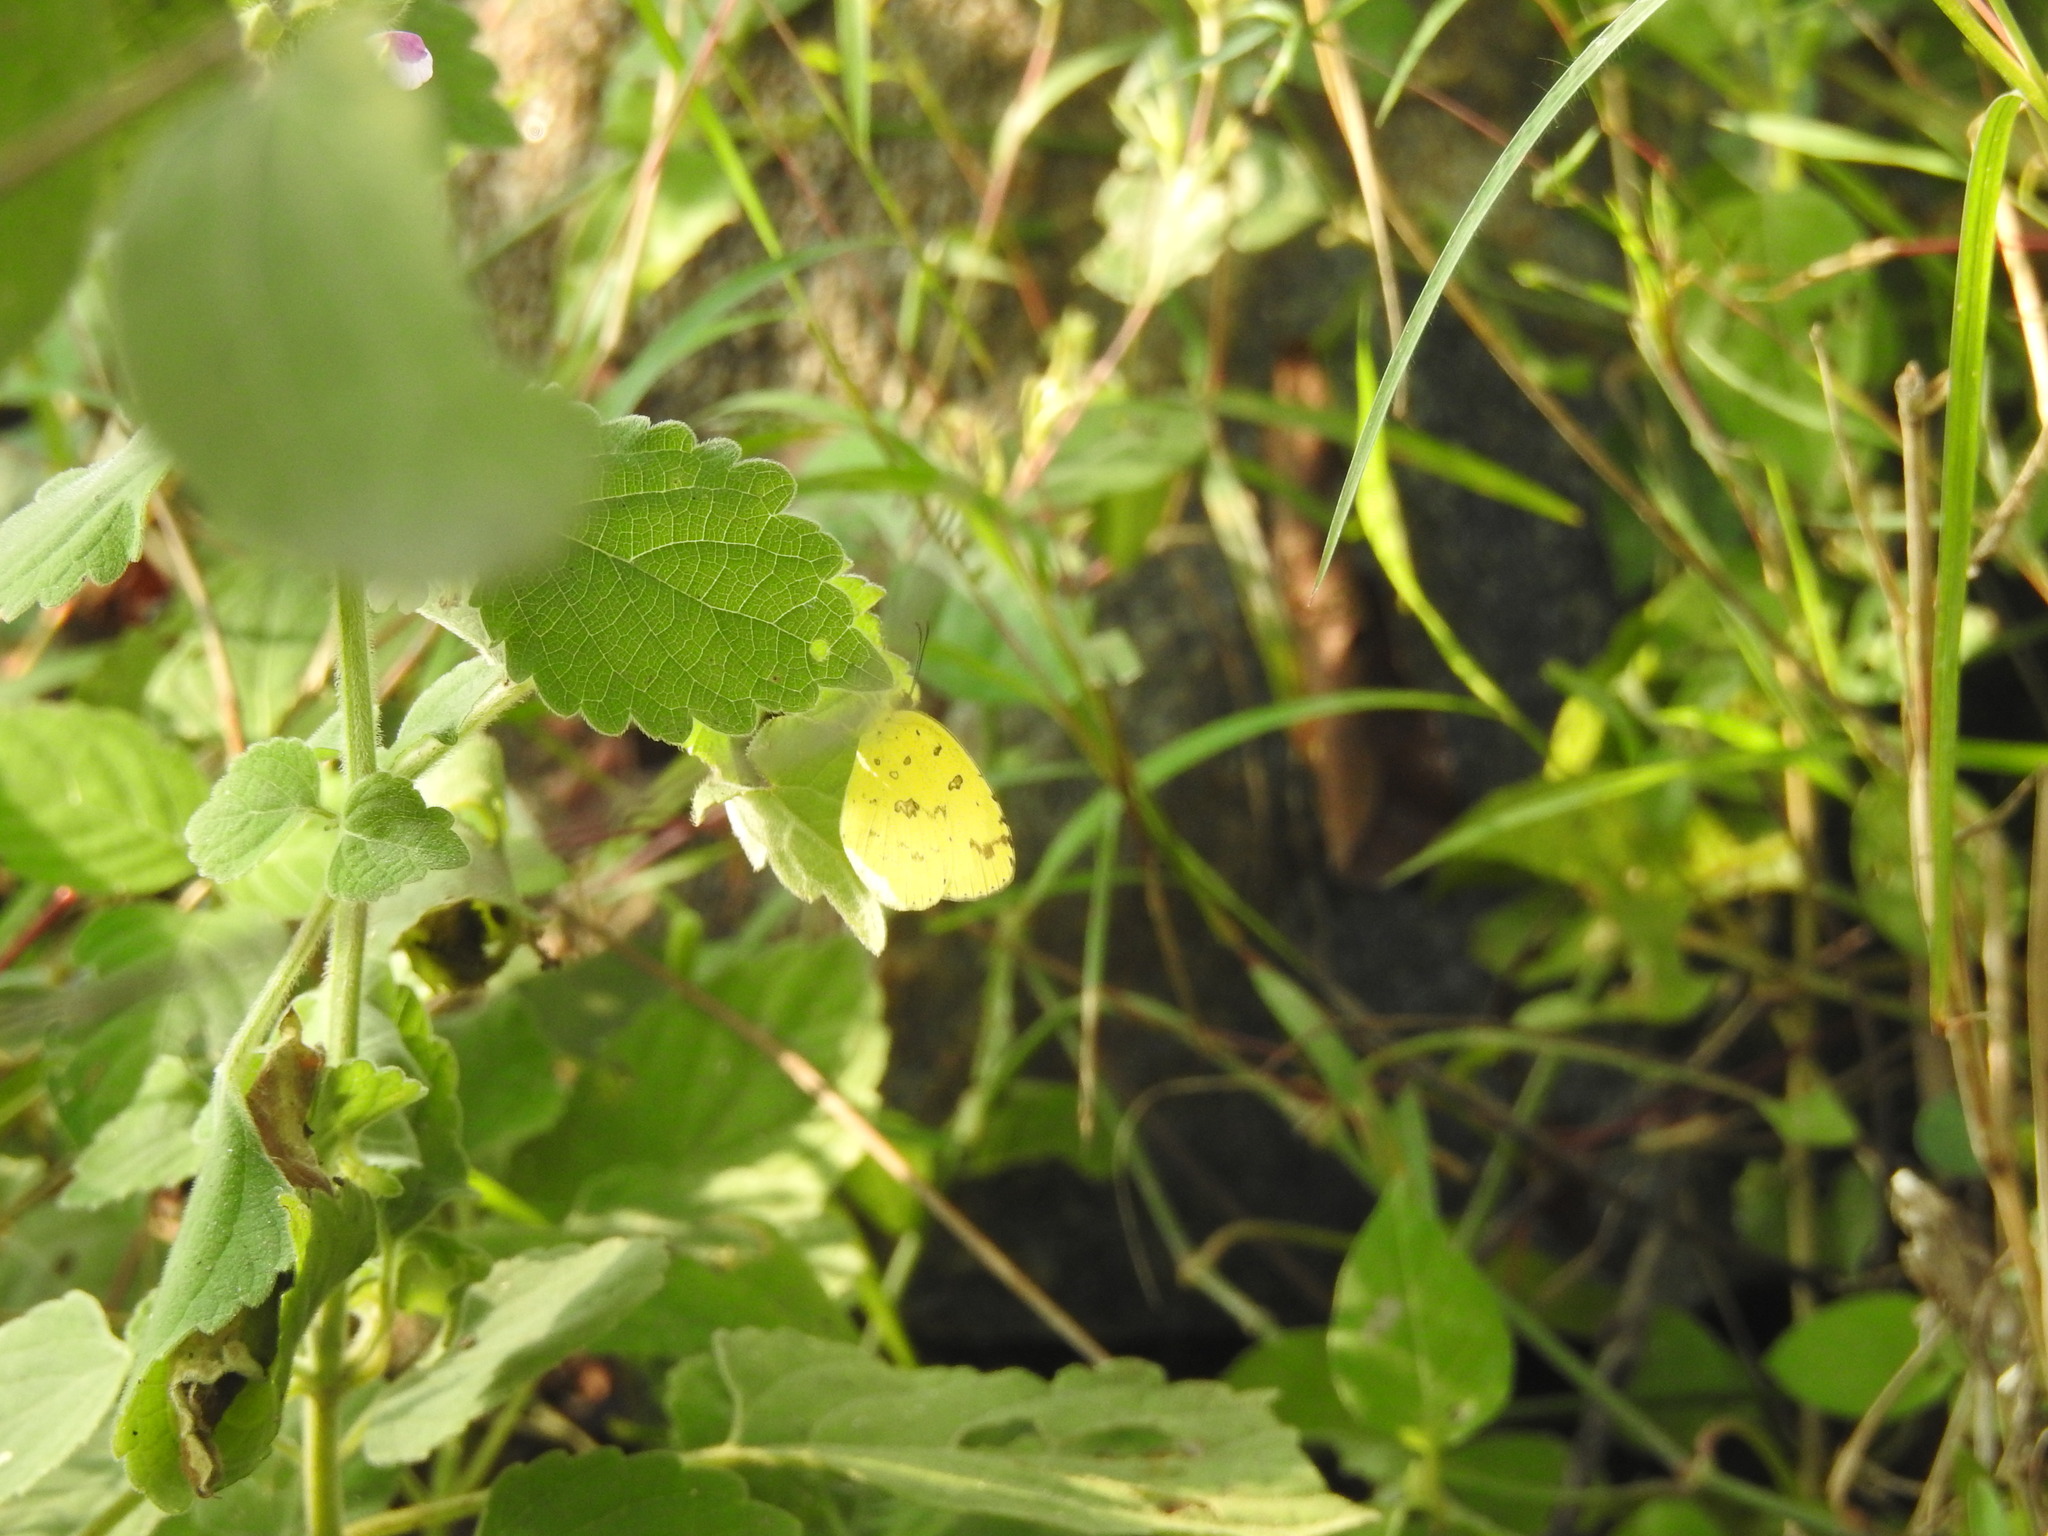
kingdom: Animalia
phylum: Arthropoda
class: Insecta
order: Lepidoptera
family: Pieridae
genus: Eurema
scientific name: Eurema hecabe
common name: Pale grass yellow
